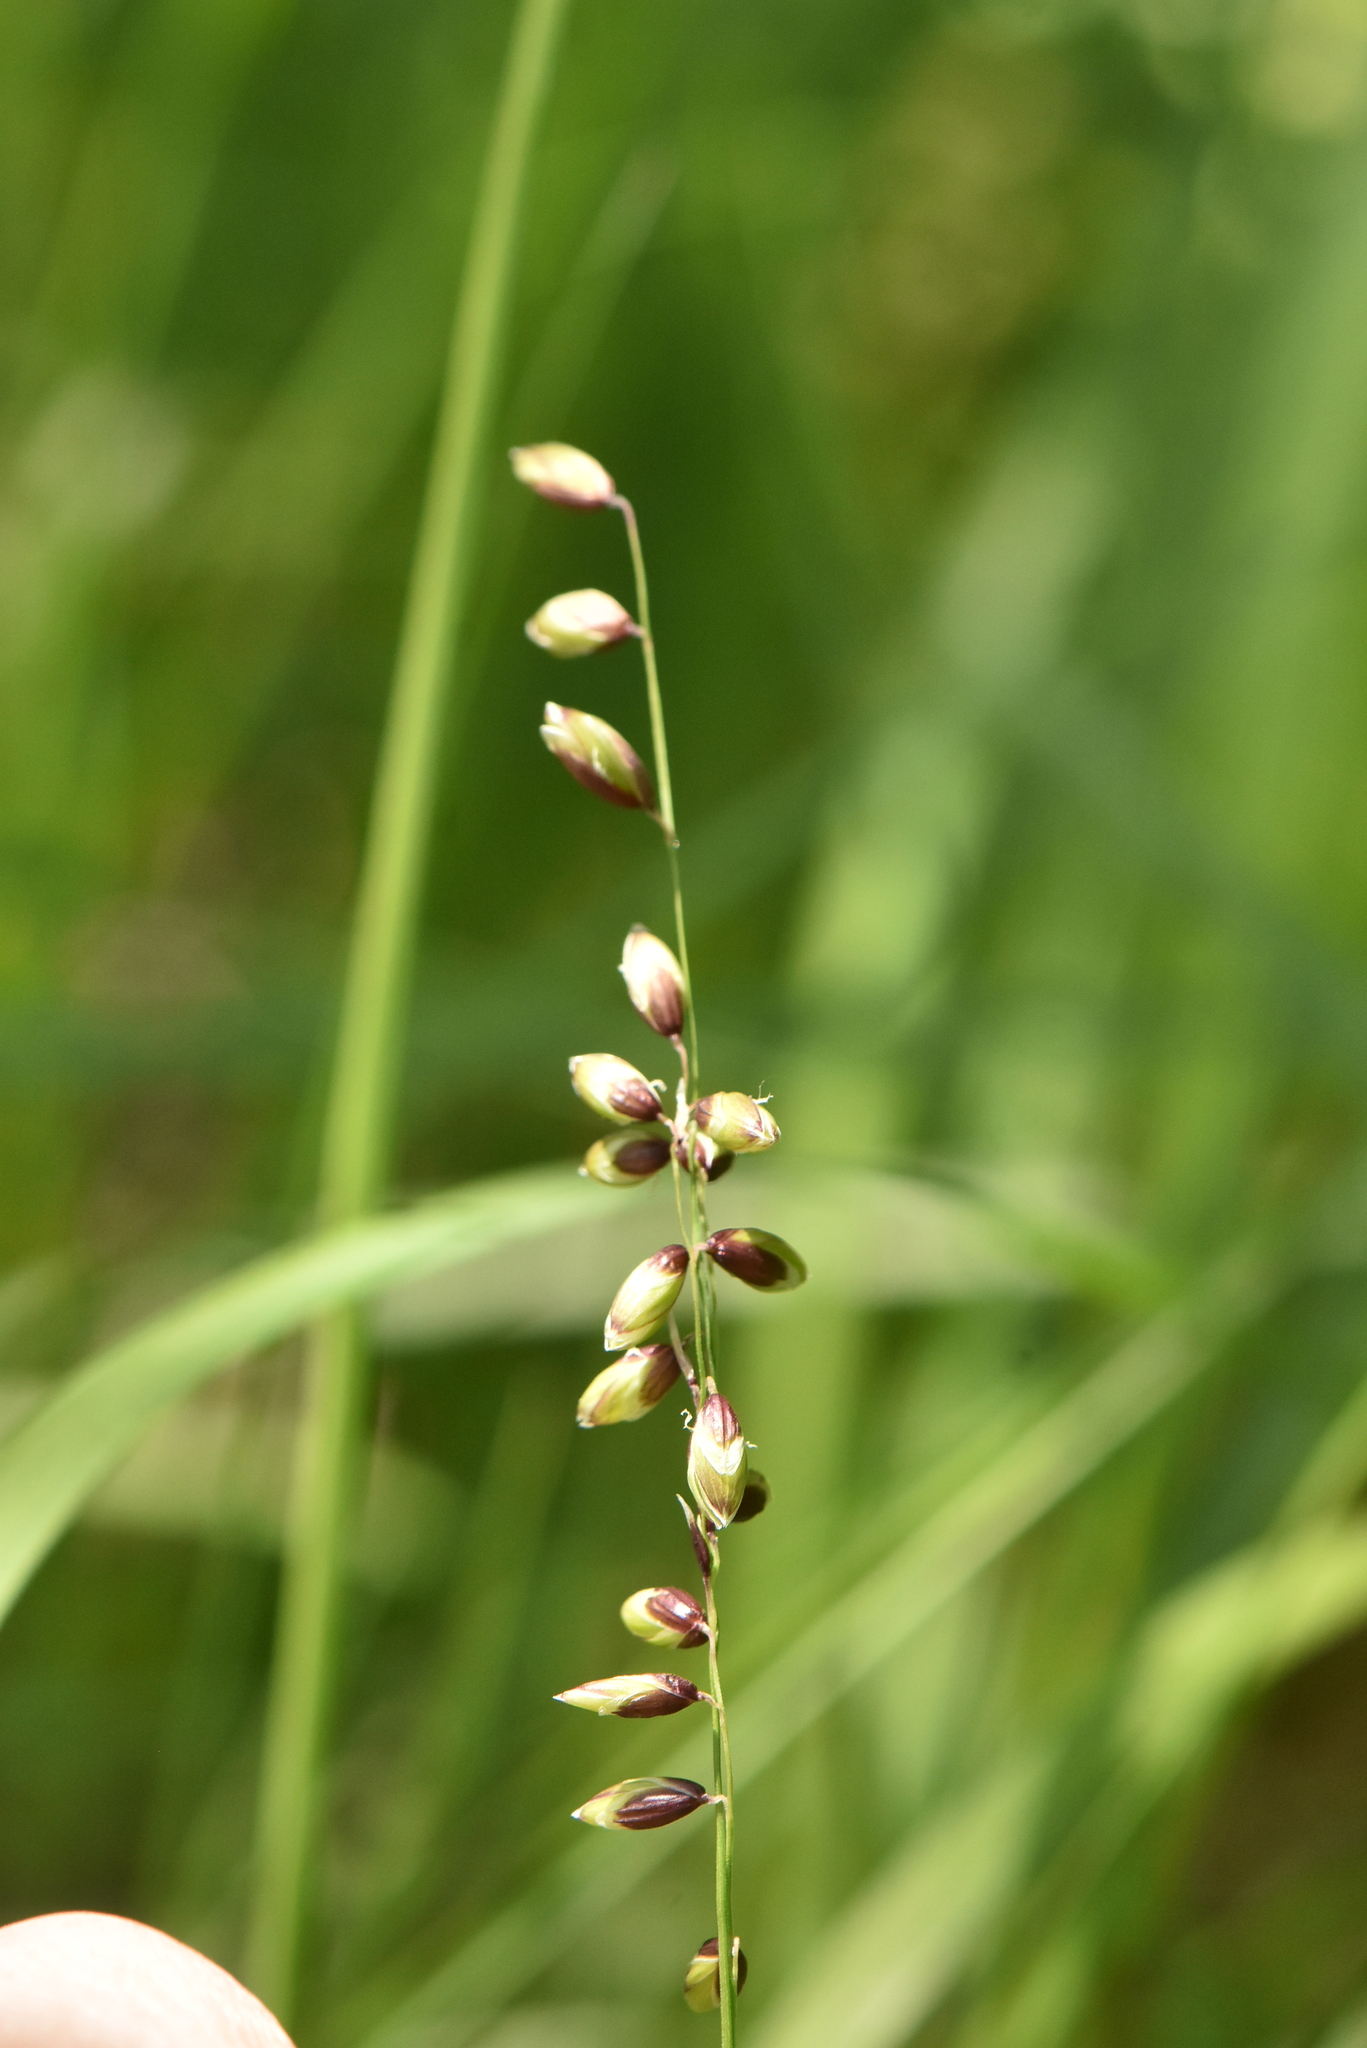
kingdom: Plantae
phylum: Tracheophyta
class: Liliopsida
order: Poales
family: Poaceae
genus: Melica
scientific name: Melica nutans
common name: Mountain melick
